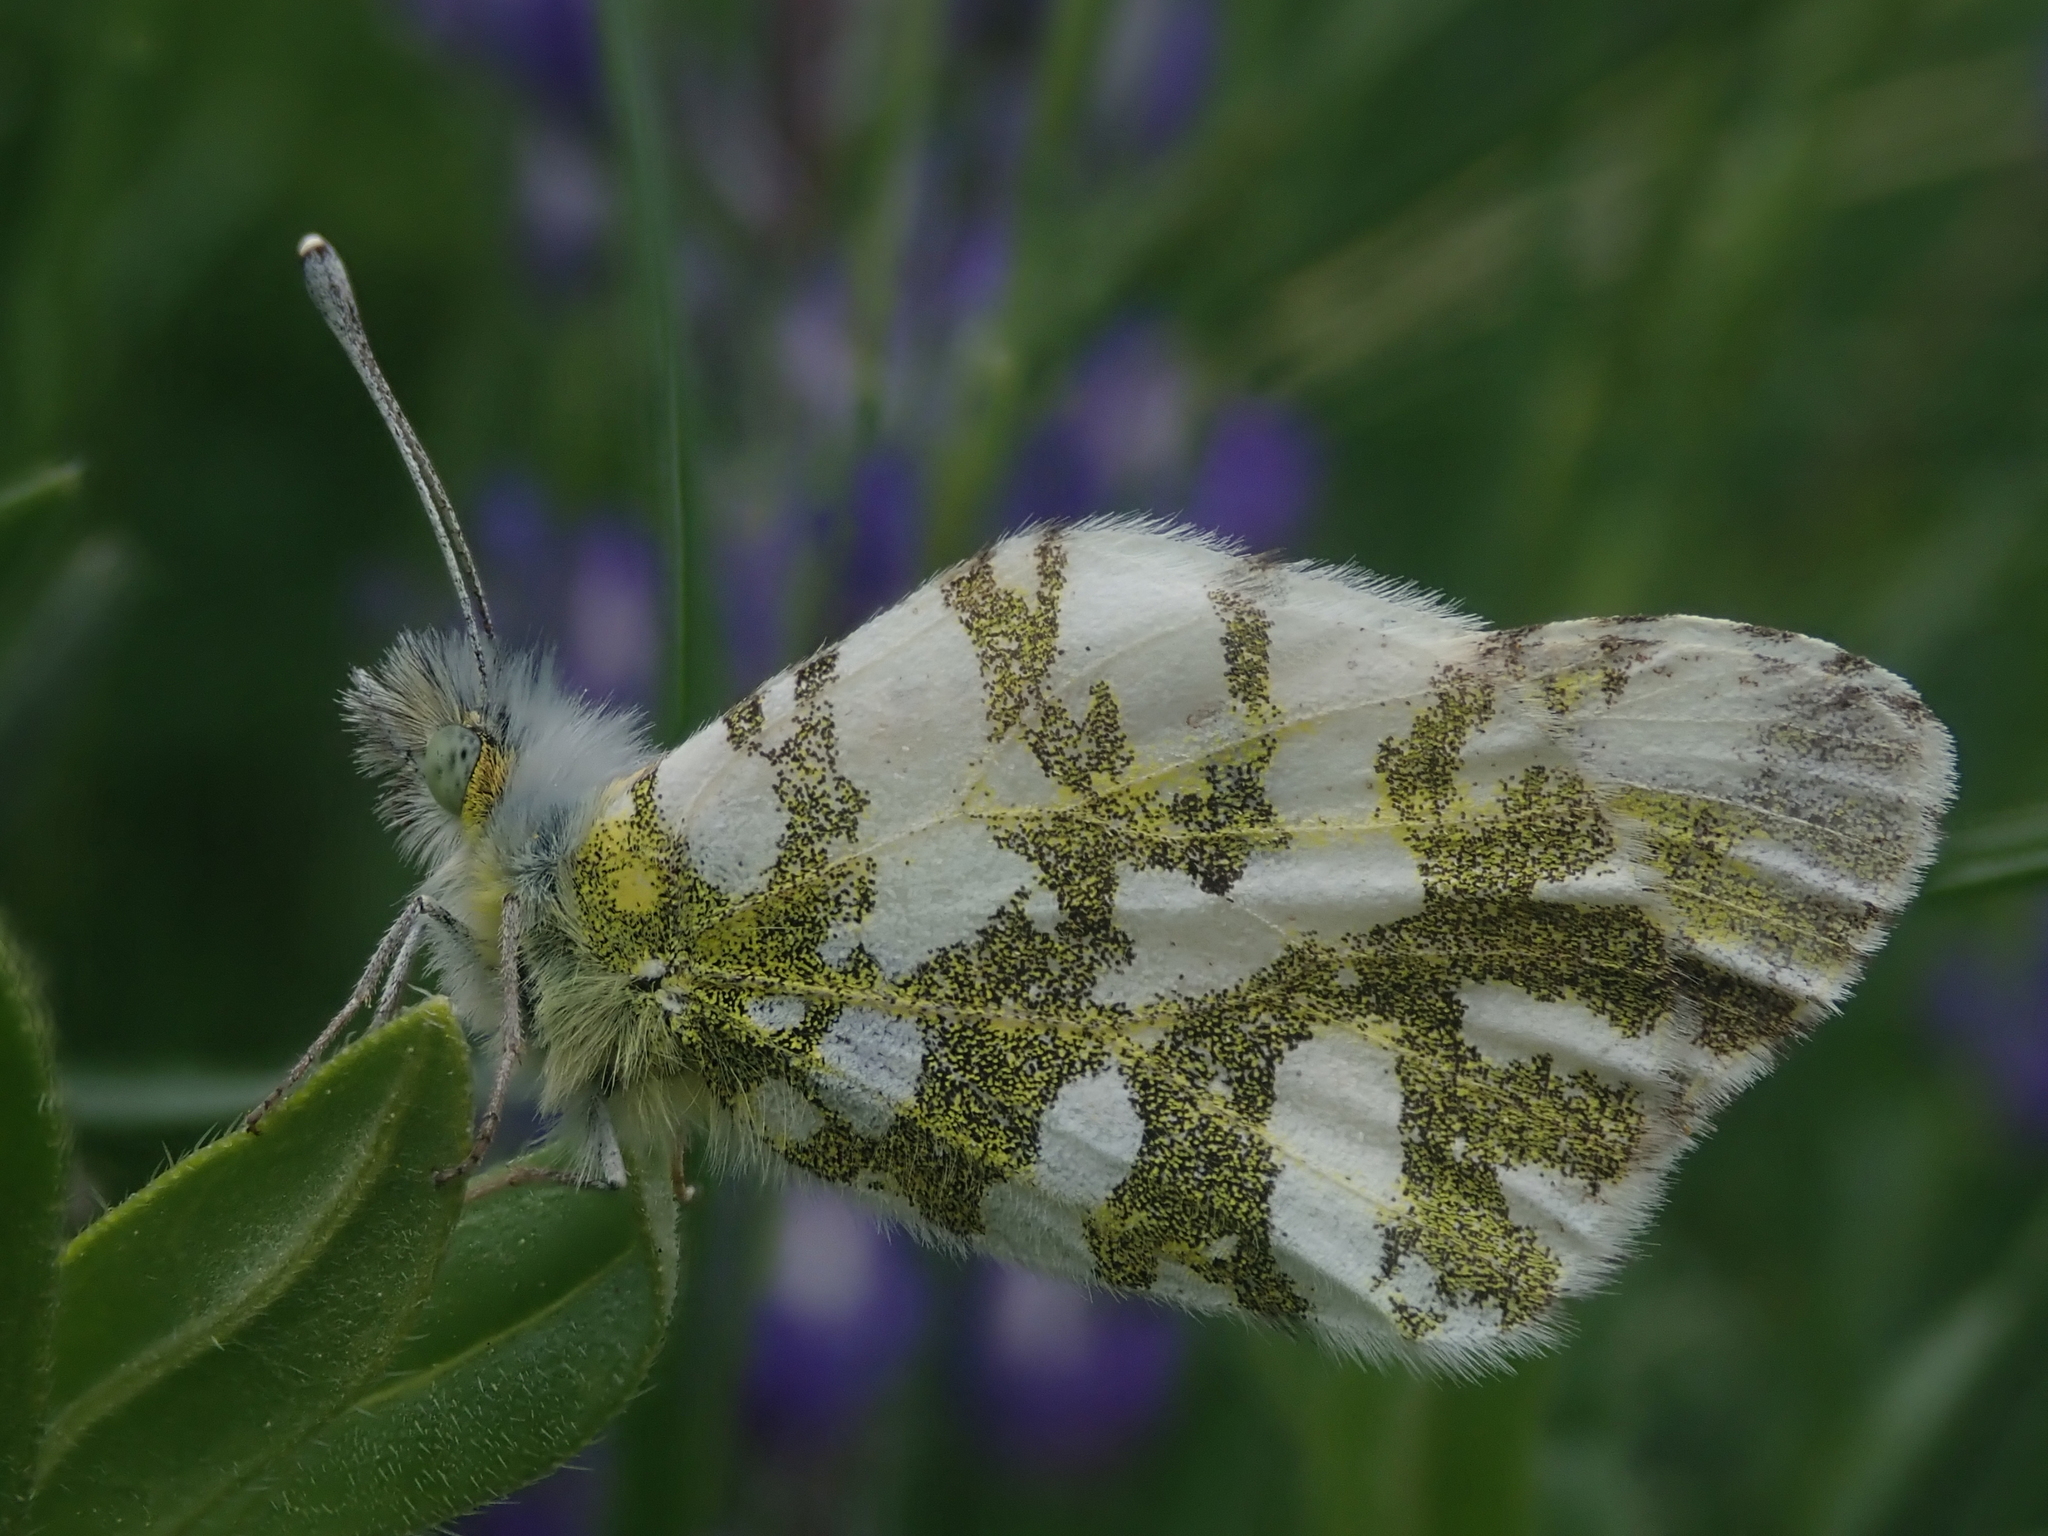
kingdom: Animalia
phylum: Arthropoda
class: Insecta
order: Lepidoptera
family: Pieridae
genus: Euchloe
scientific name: Euchloe ausonides
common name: Creamy marblewing
